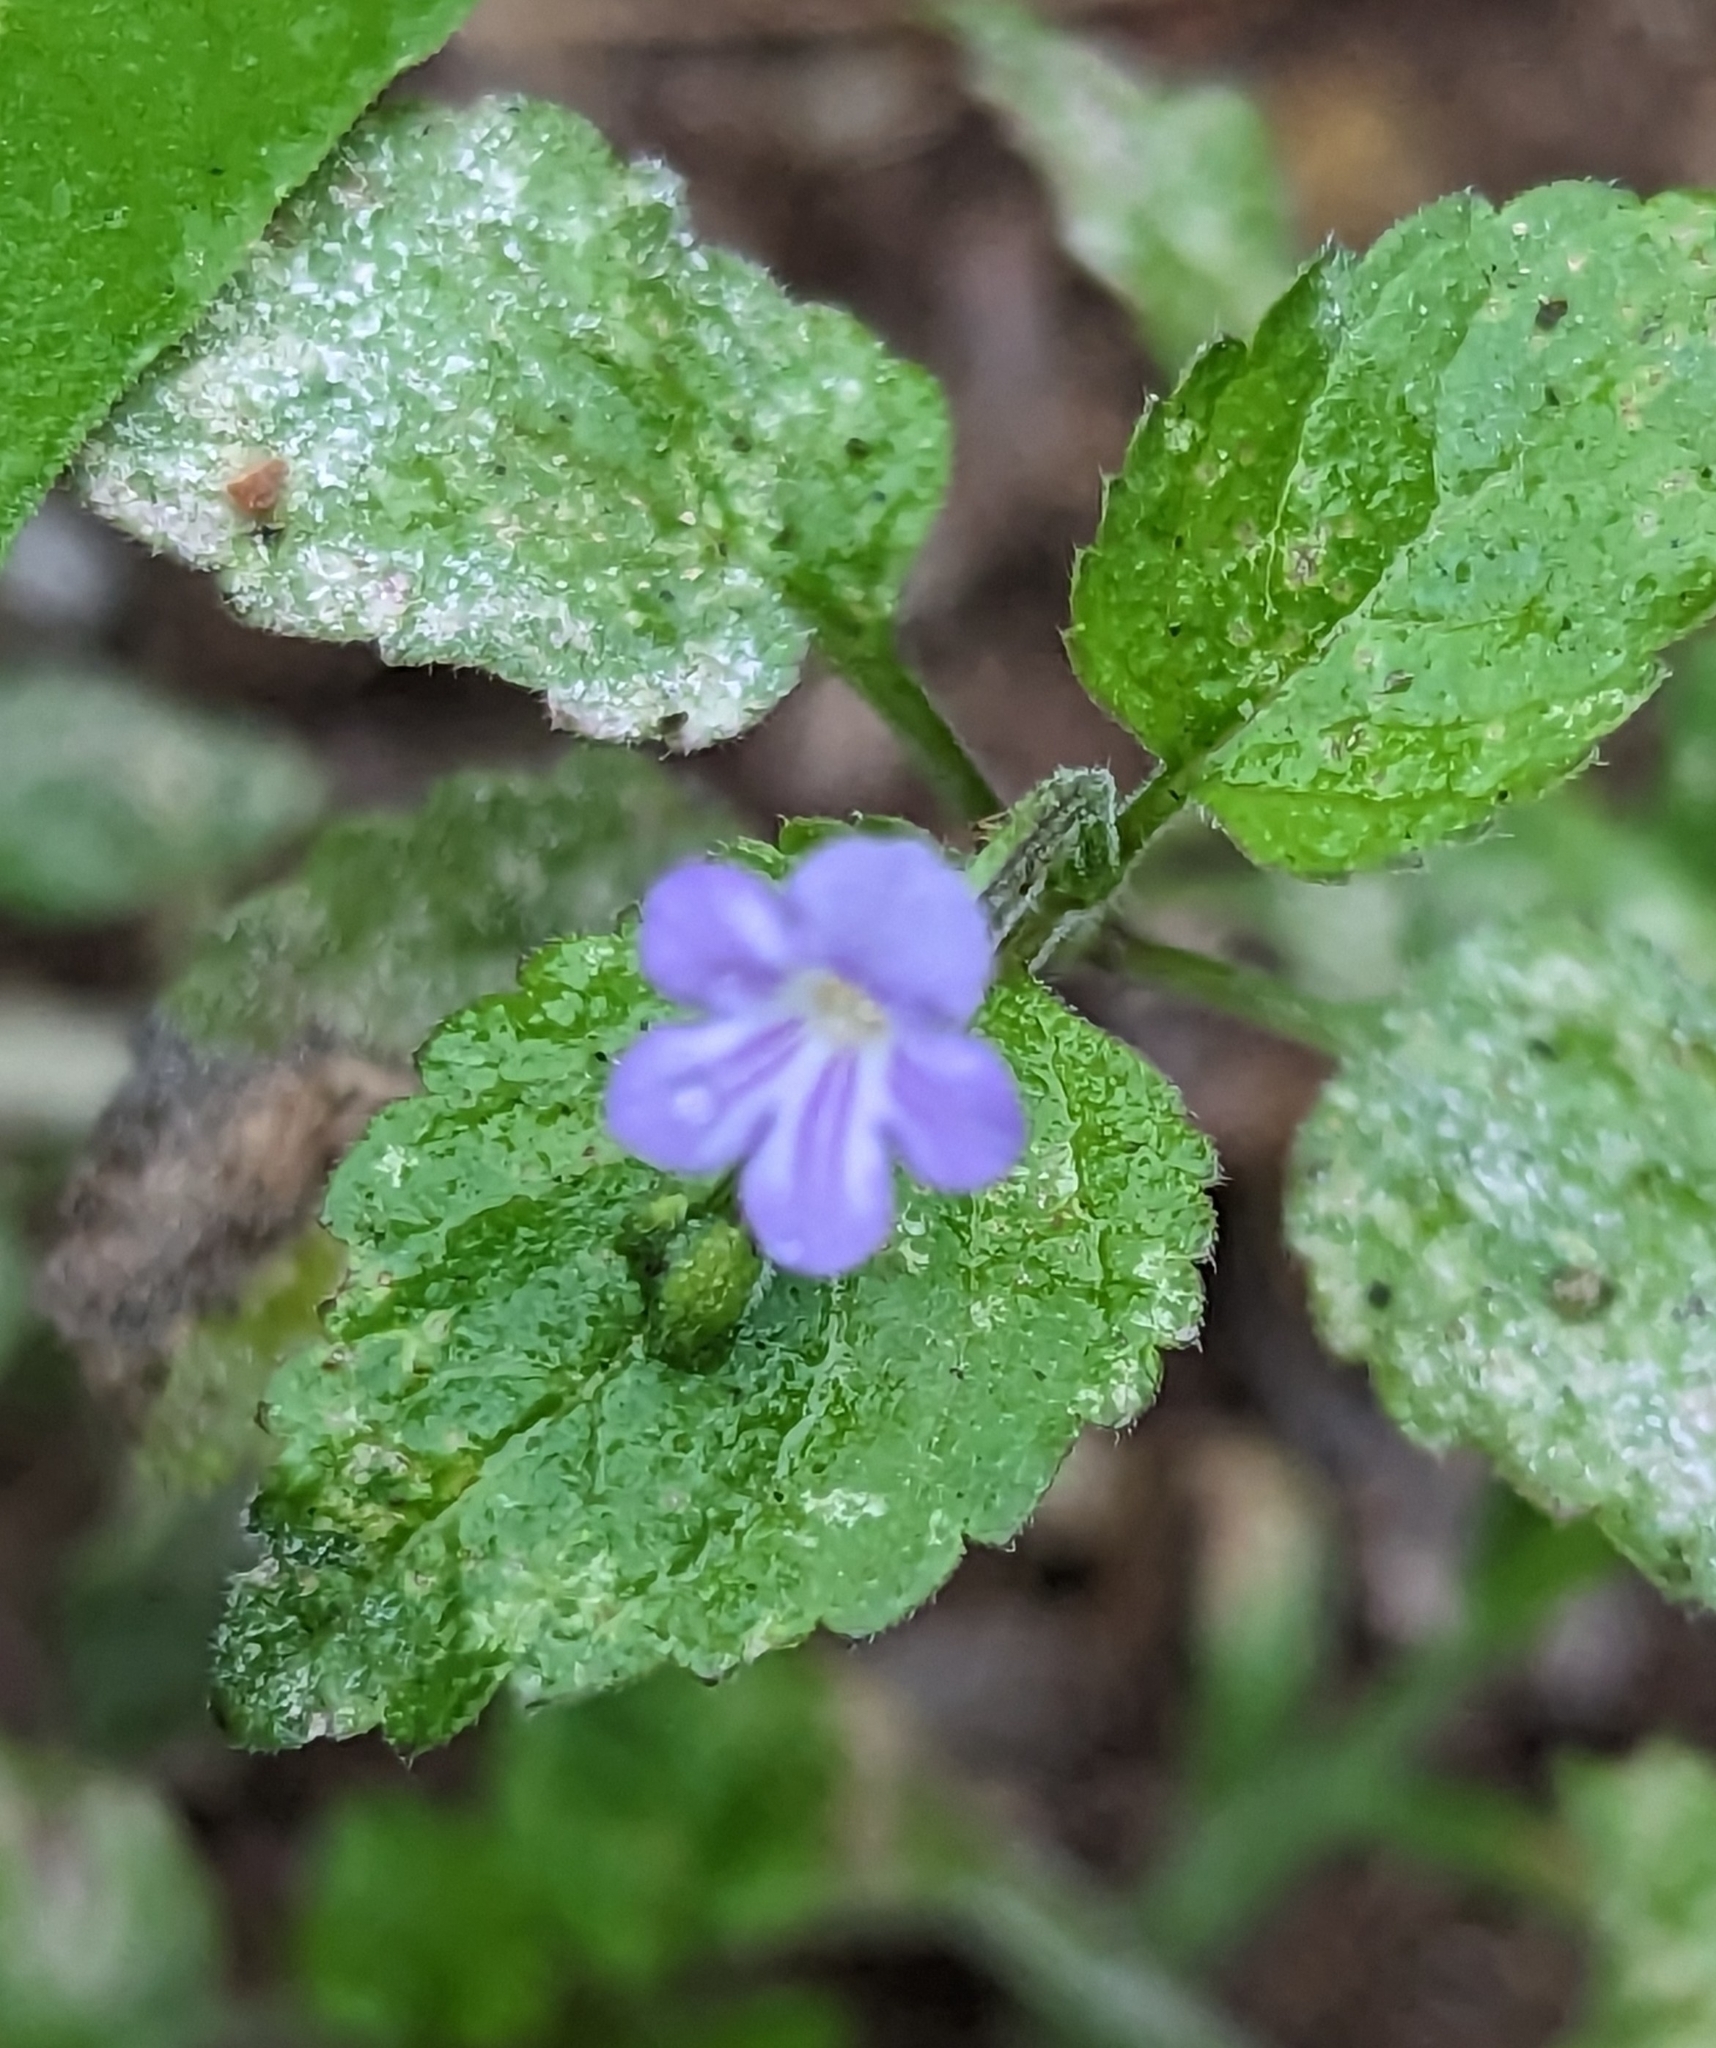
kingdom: Plantae
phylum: Tracheophyta
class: Magnoliopsida
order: Lamiales
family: Verbenaceae
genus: Priva
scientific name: Priva lappulacea
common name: Fasten-'pon-coat
